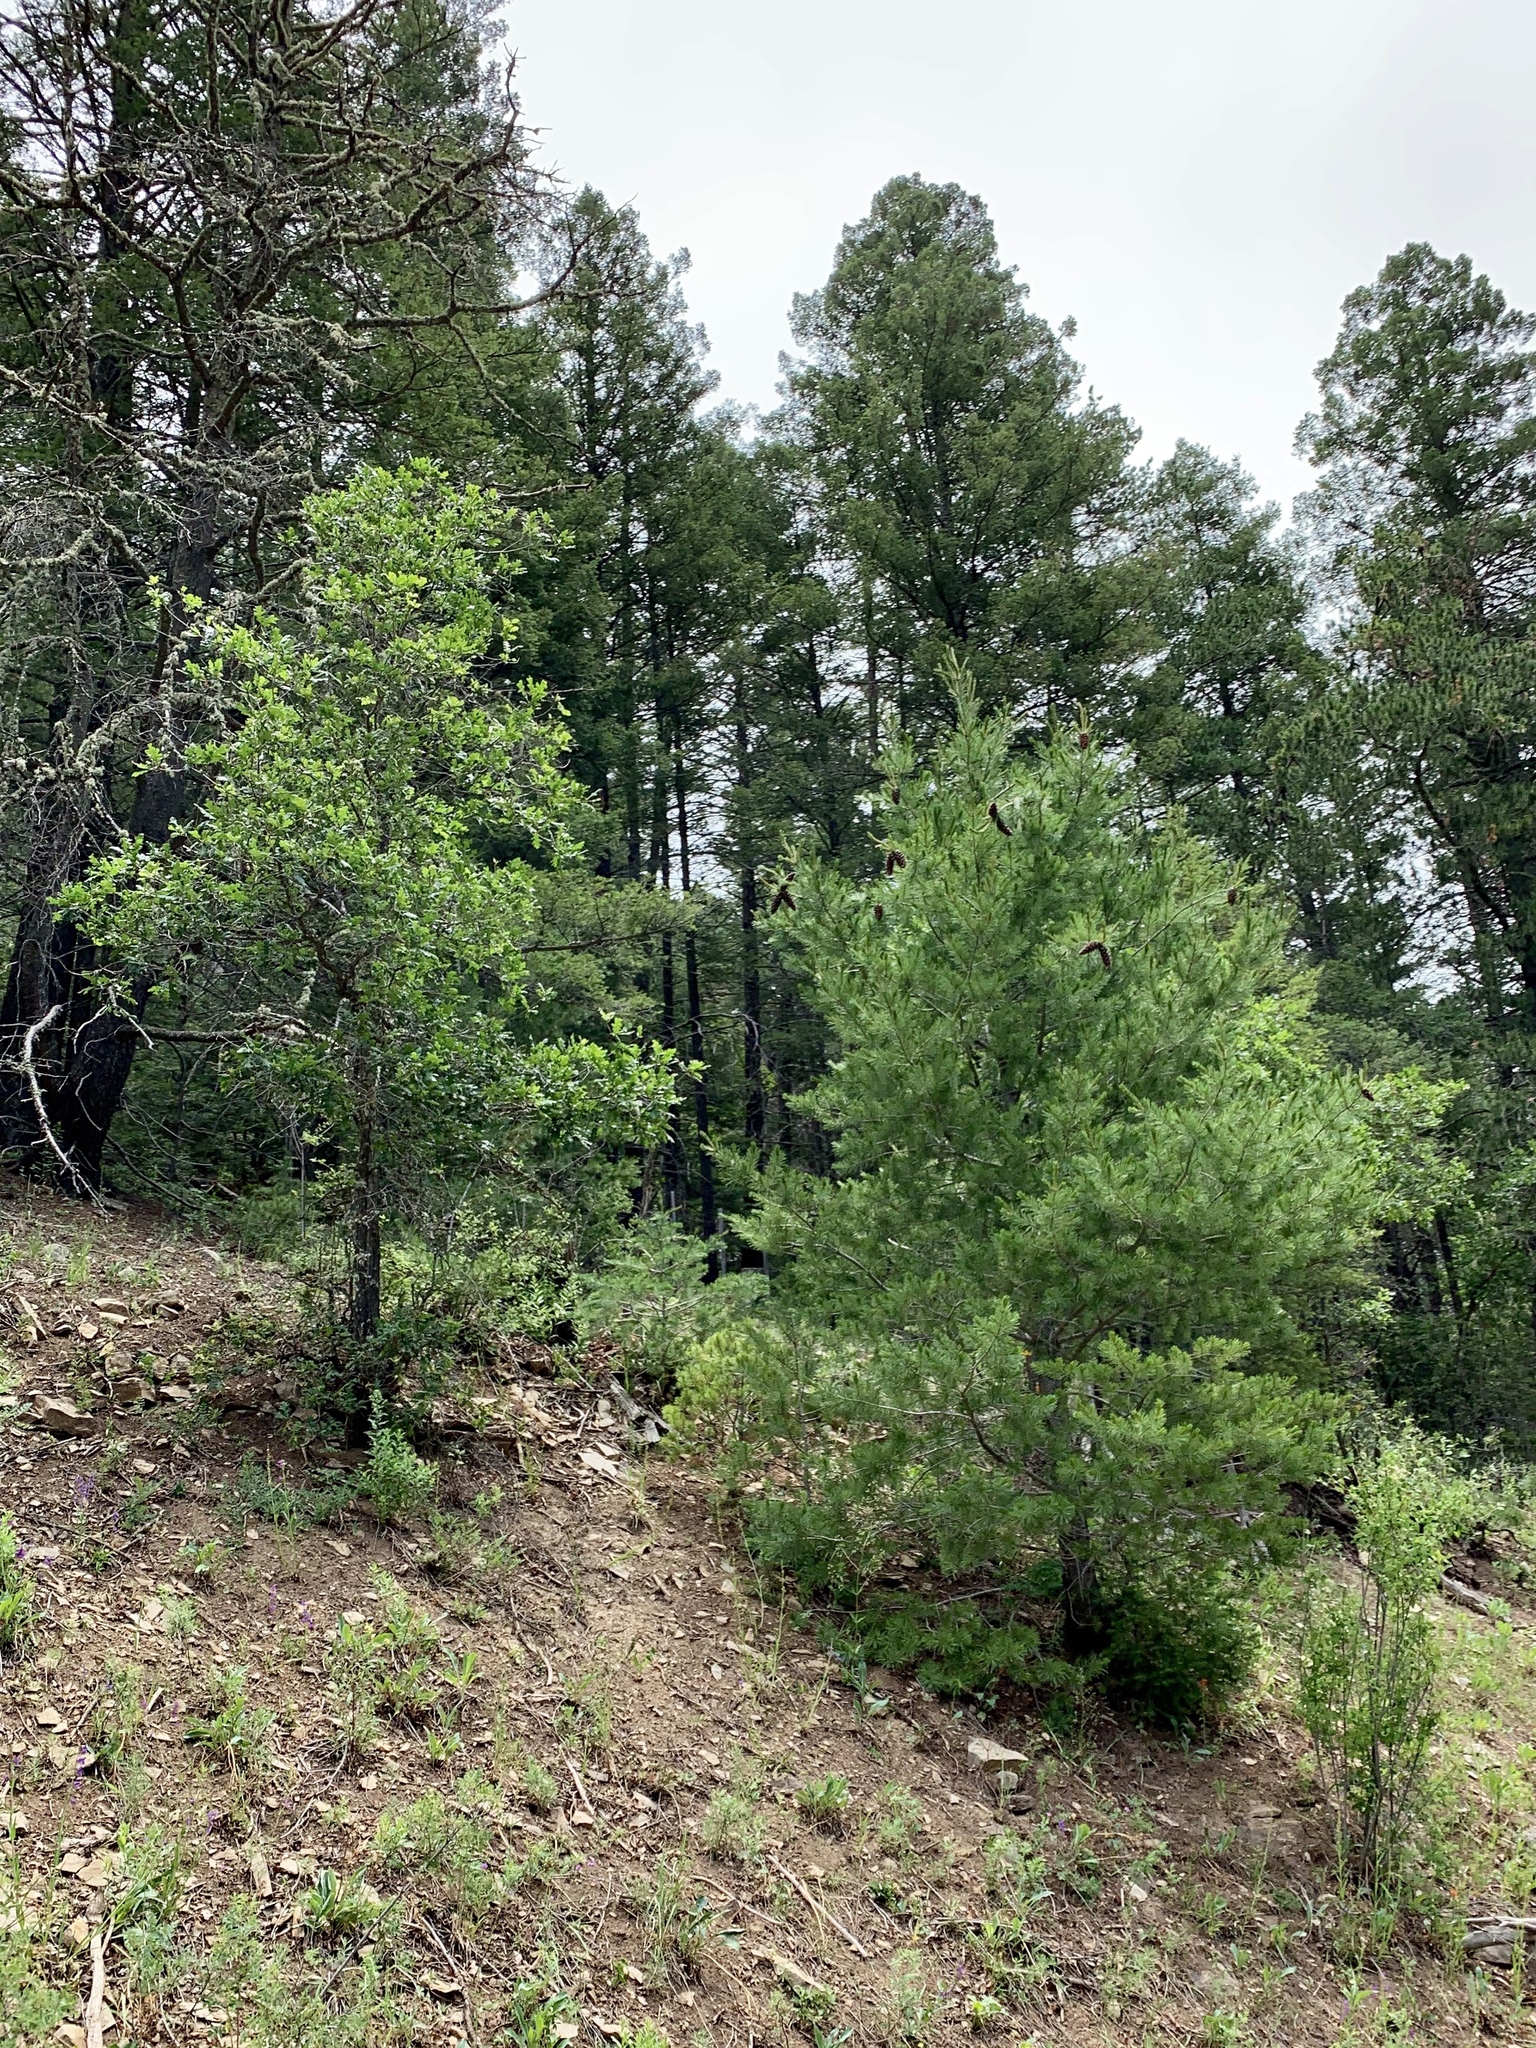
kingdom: Plantae
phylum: Tracheophyta
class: Pinopsida
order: Pinales
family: Pinaceae
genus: Pinus
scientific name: Pinus strobiformis
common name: Southwestern white pine
